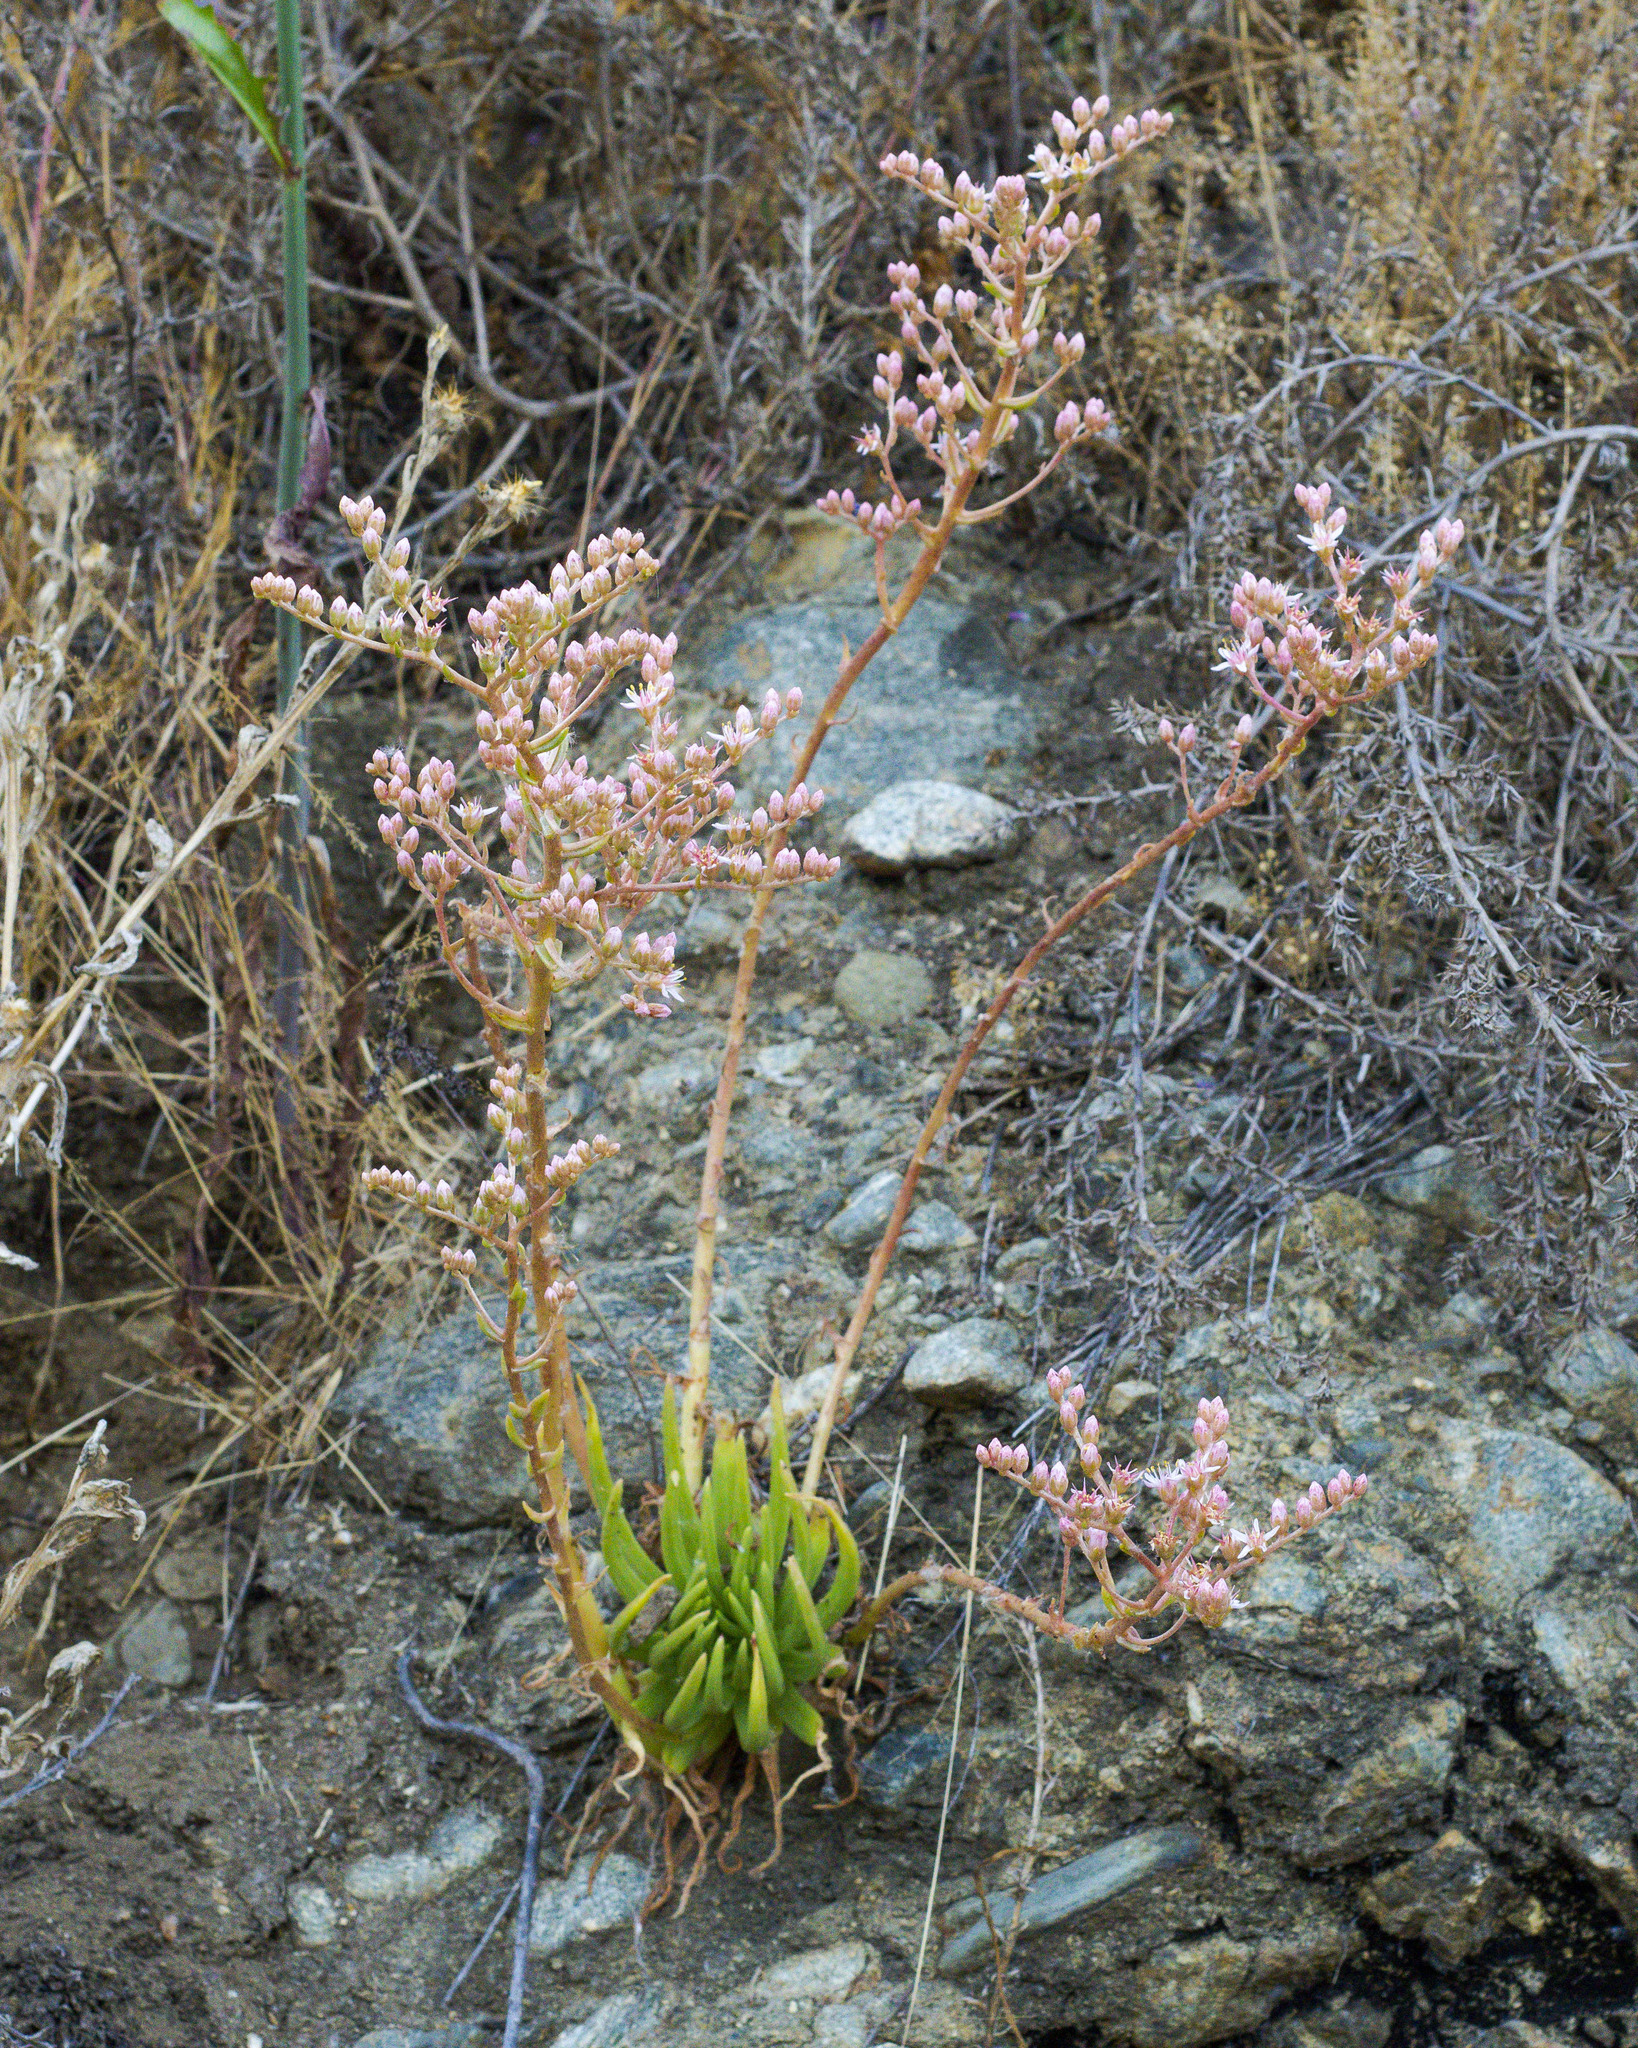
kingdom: Plantae
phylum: Tracheophyta
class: Magnoliopsida
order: Saxifragales
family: Crassulaceae
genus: Dudleya
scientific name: Dudleya viscida
